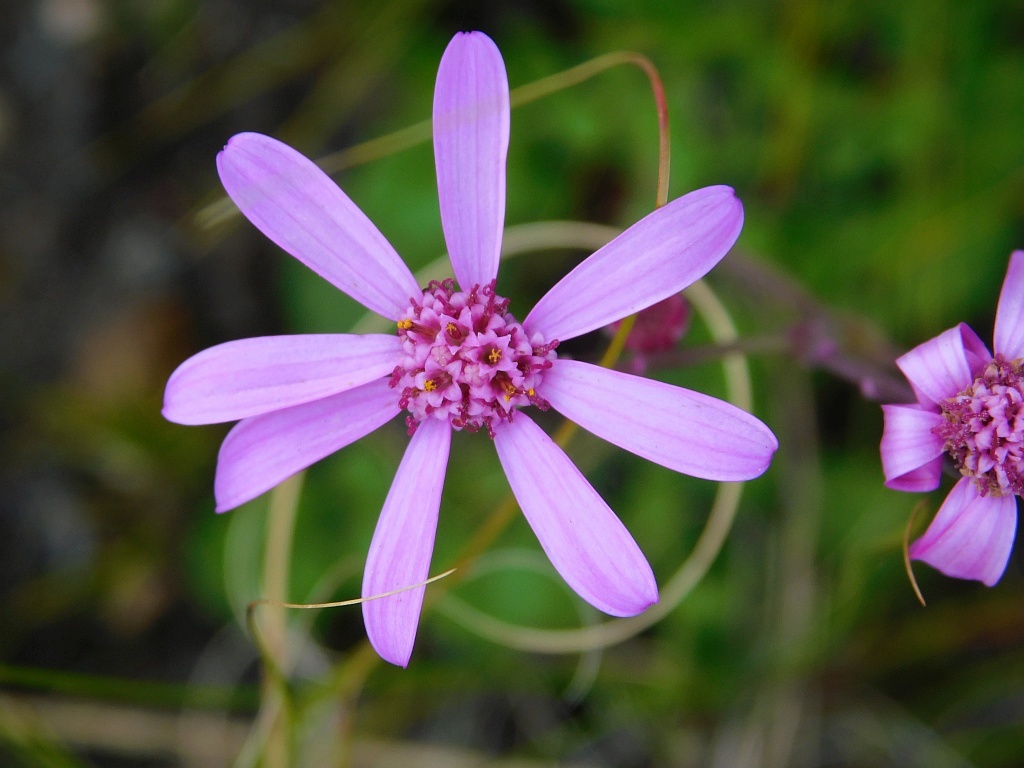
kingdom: Plantae
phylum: Tracheophyta
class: Magnoliopsida
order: Asterales
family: Asteraceae
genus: Senecio
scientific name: Senecio cymbalariifolius
